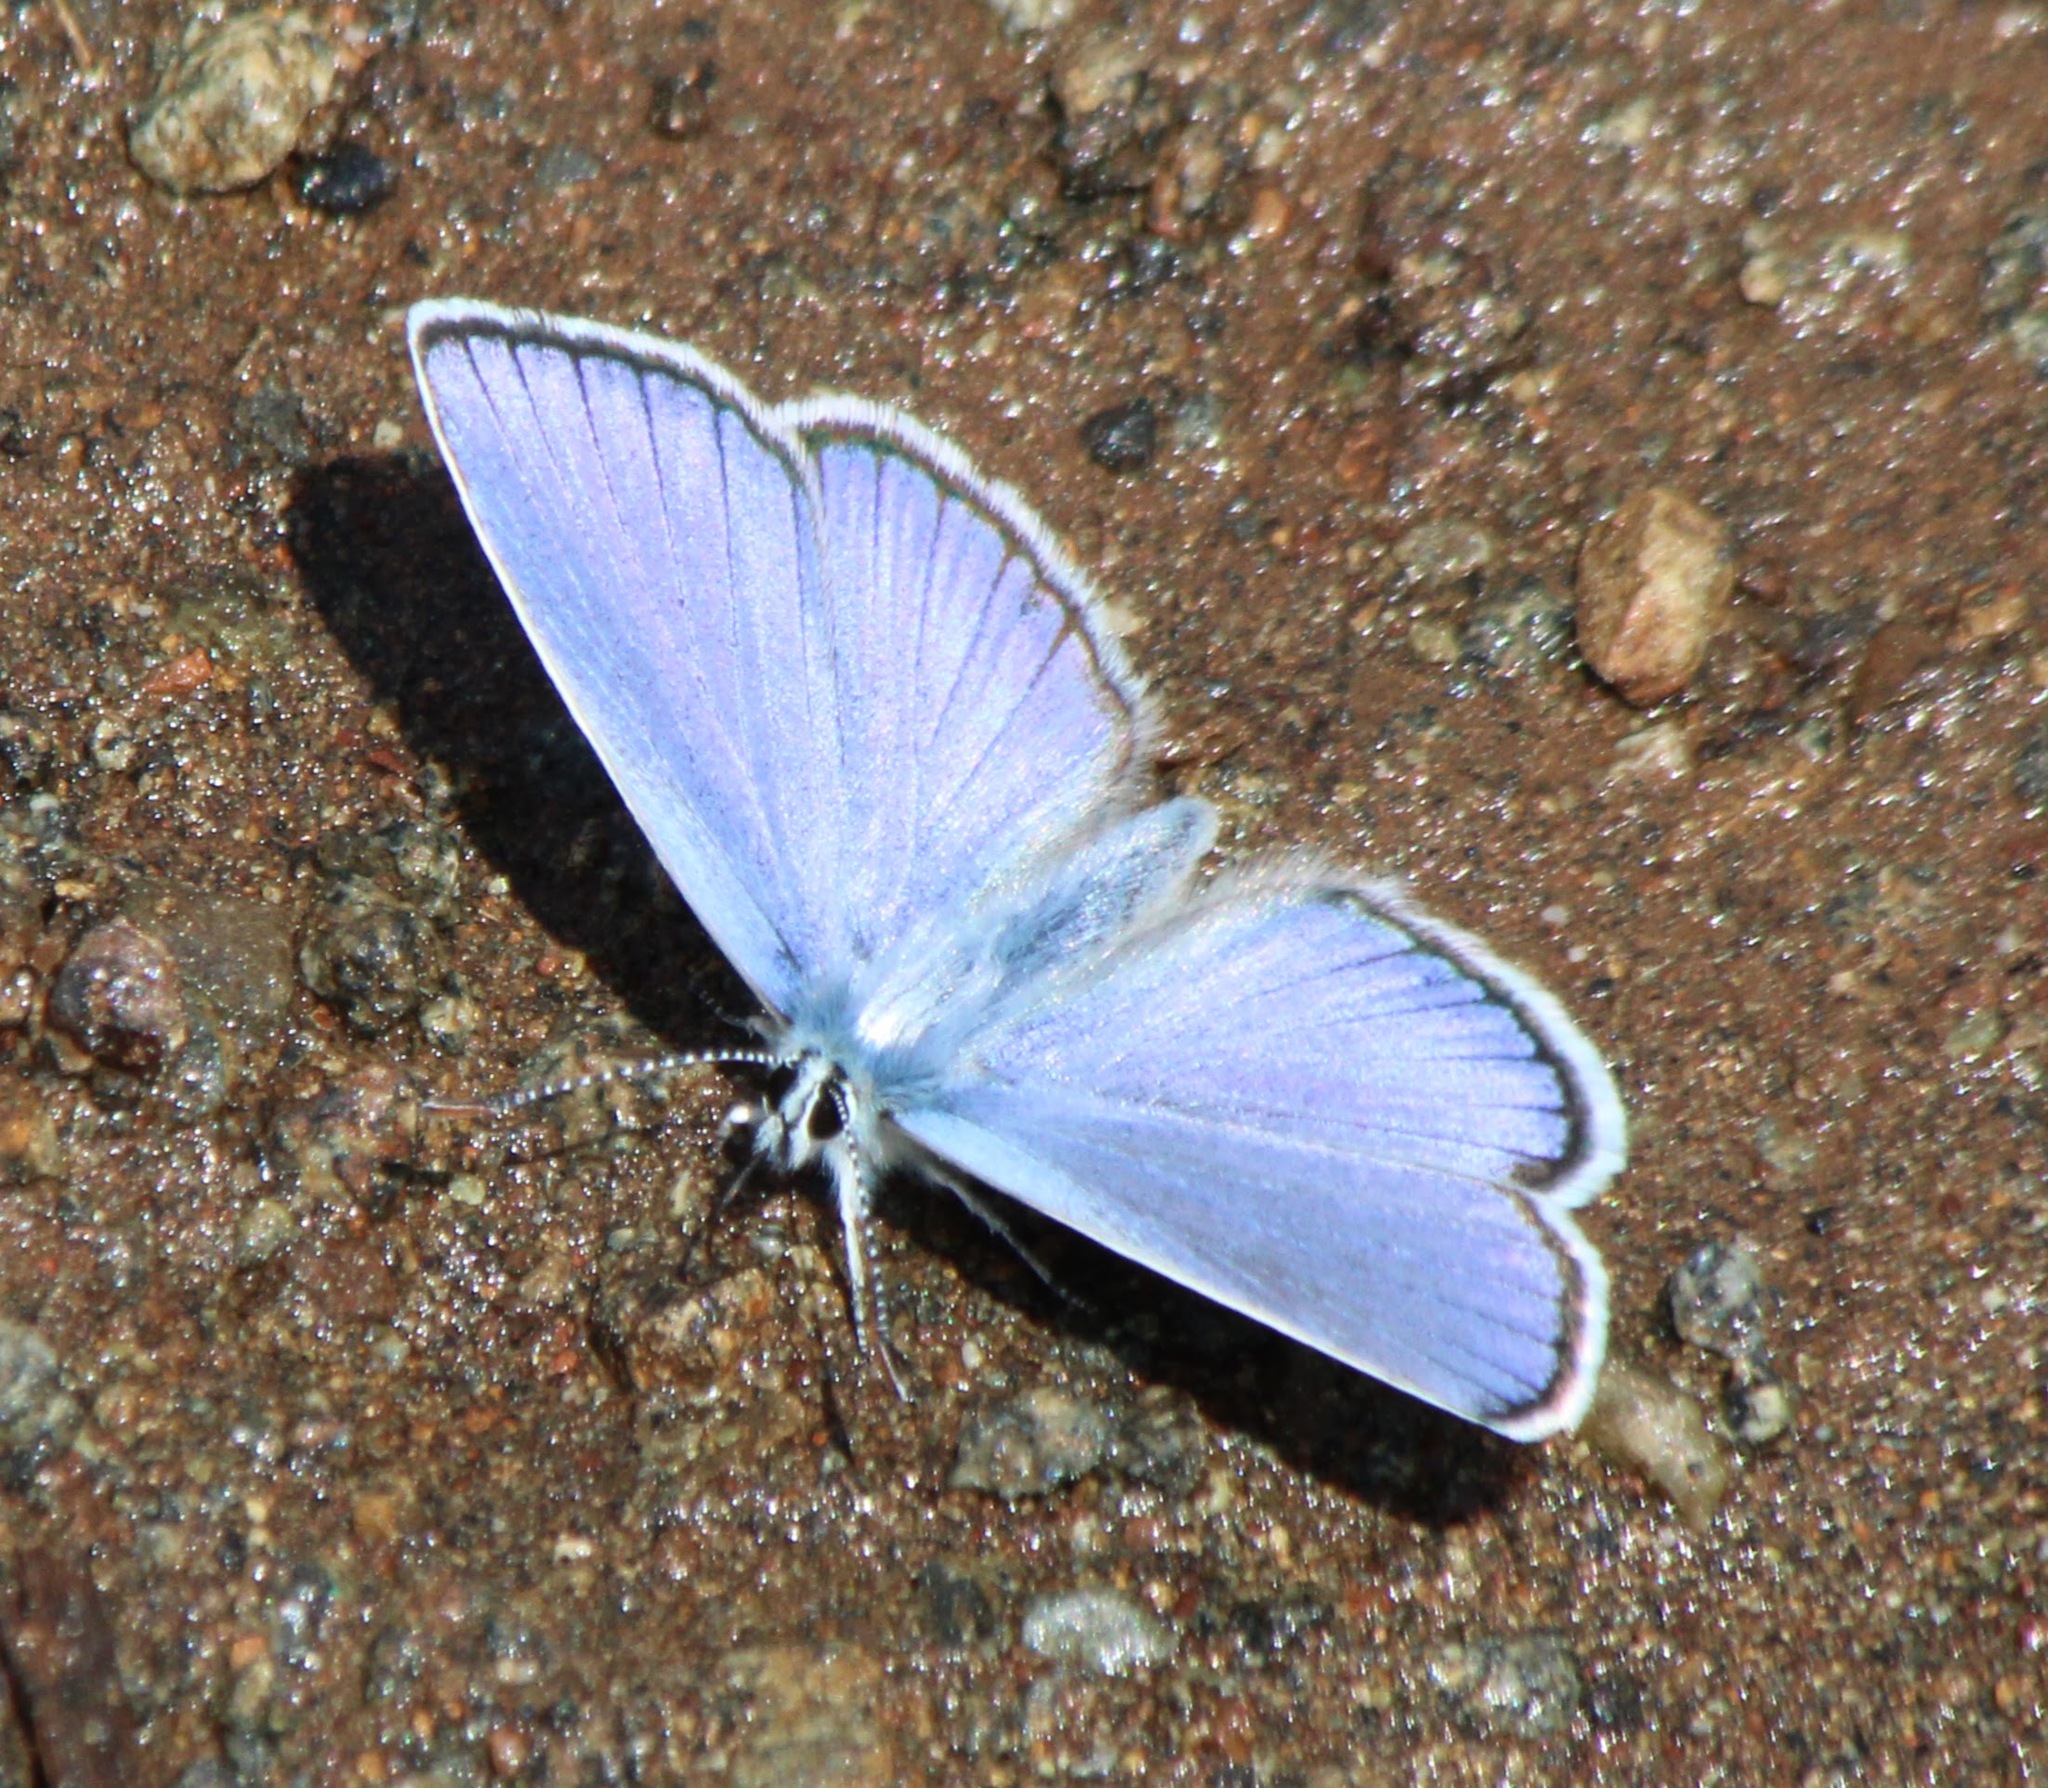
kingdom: Animalia
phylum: Arthropoda
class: Insecta
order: Lepidoptera
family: Lycaenidae
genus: Kretania
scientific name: Kretania modica
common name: Anatolian zephyr blue
